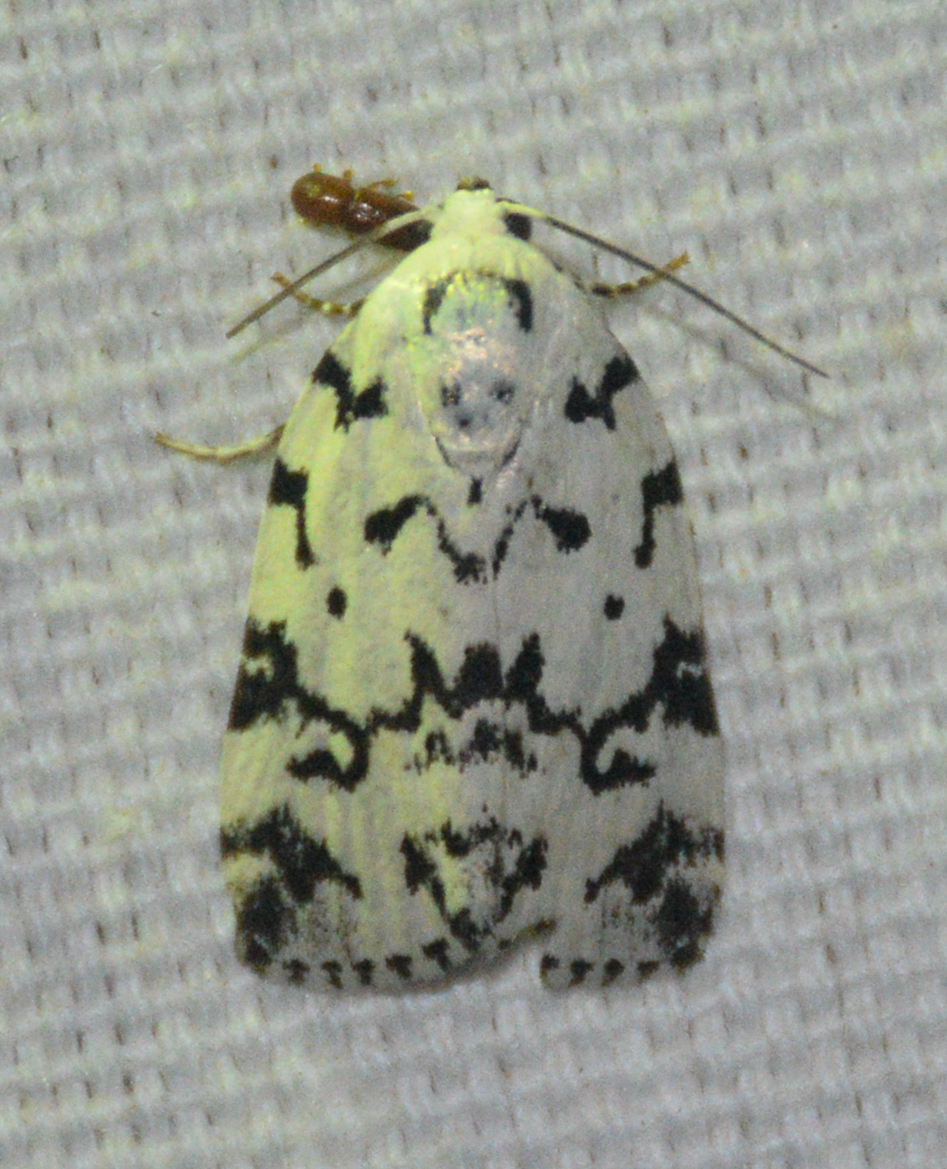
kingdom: Animalia
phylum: Arthropoda
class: Insecta
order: Lepidoptera
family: Noctuidae
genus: Polygrammate
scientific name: Polygrammate hebraeicum
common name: Hebrew moth
